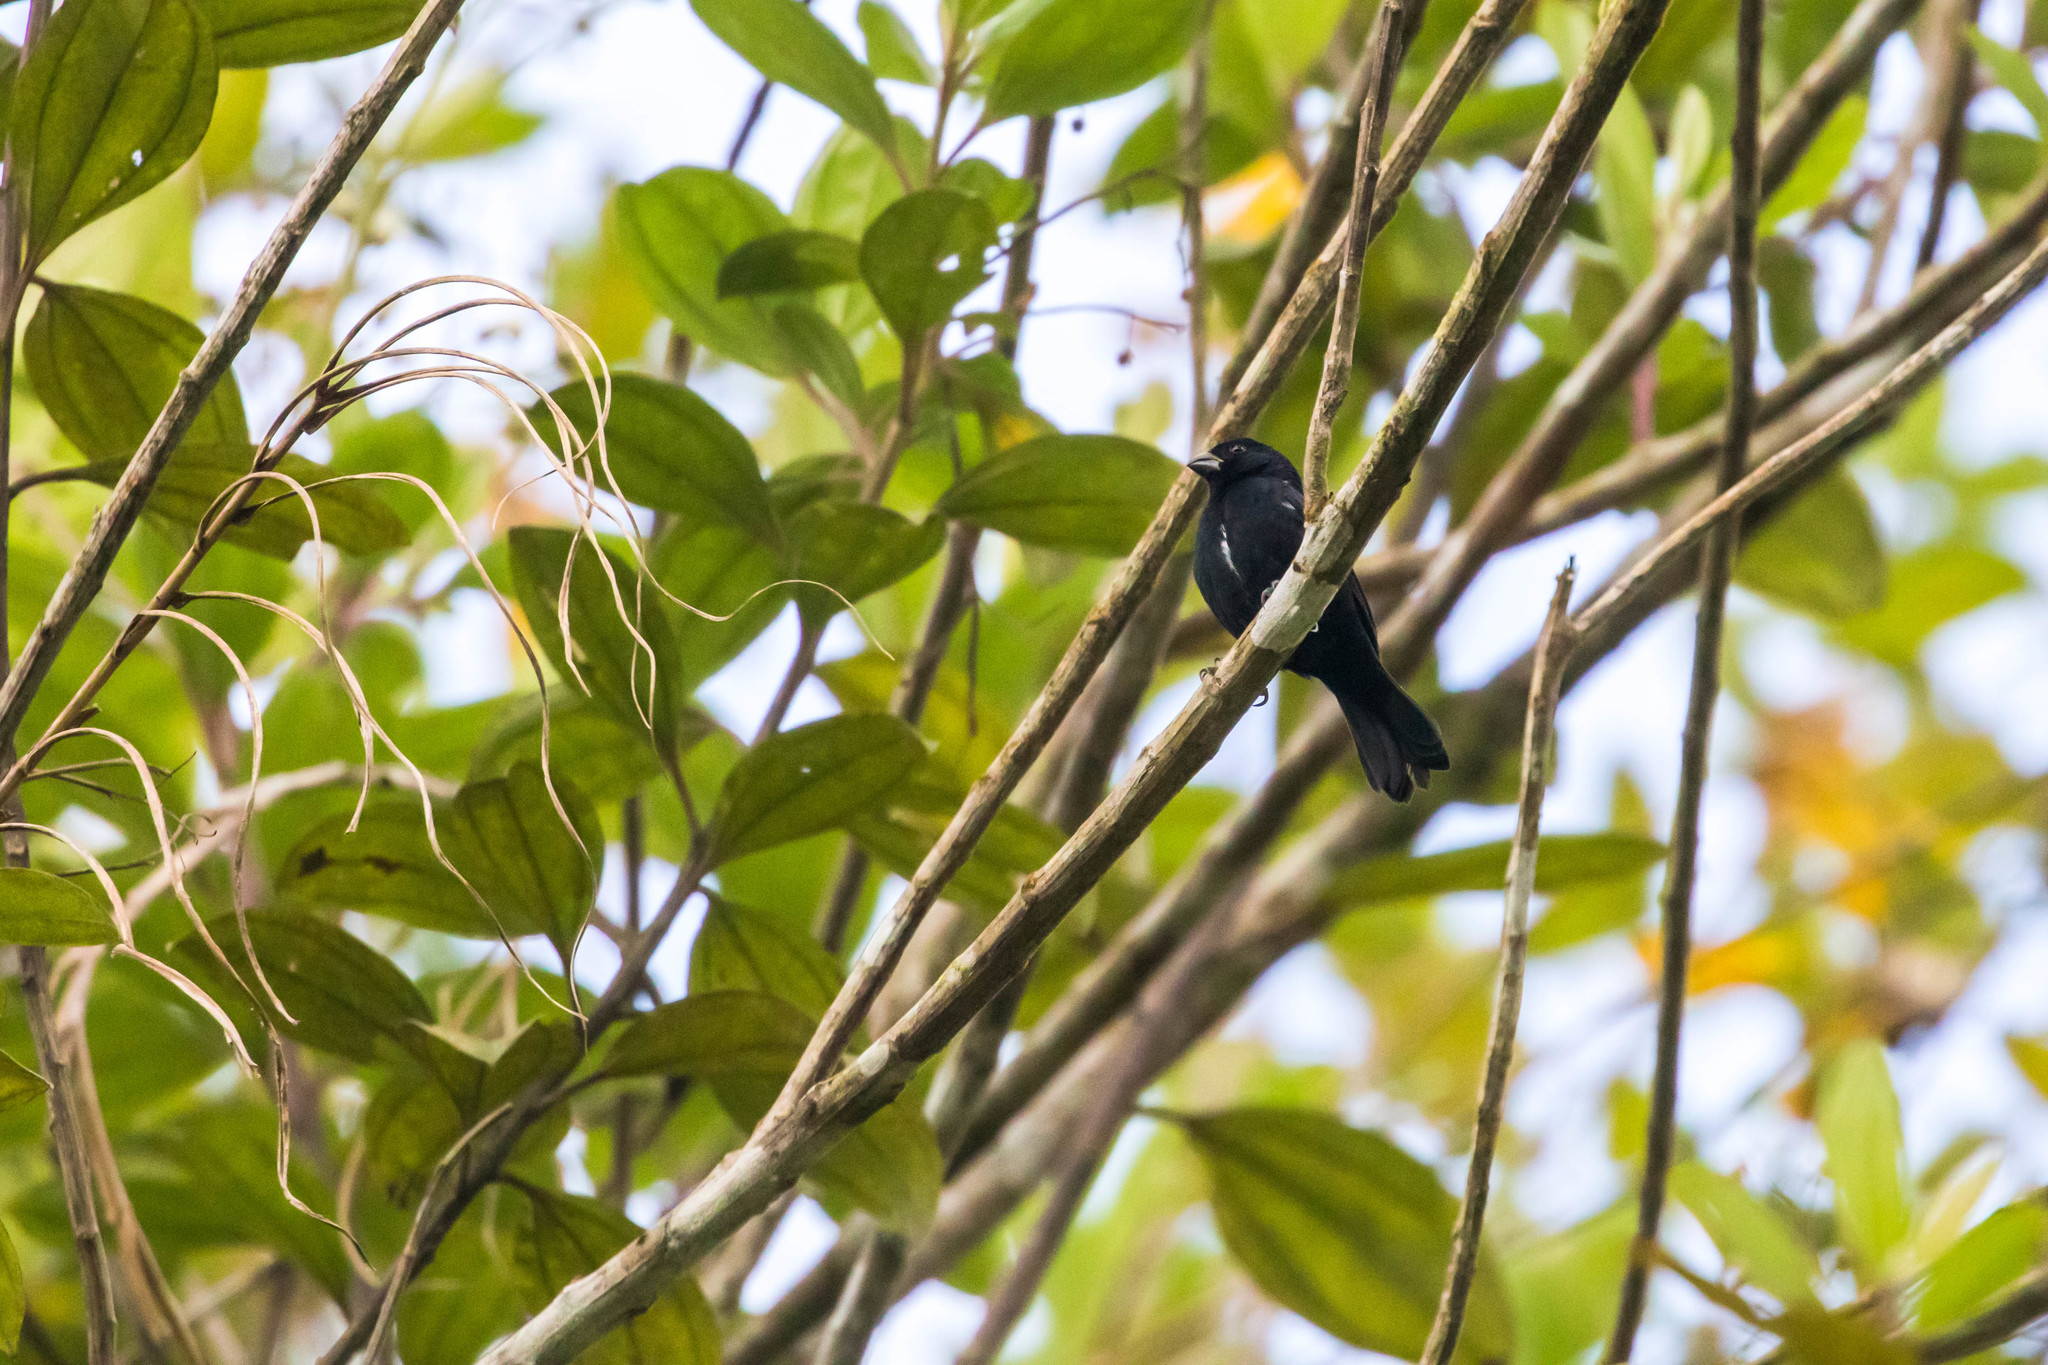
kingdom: Animalia
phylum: Chordata
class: Aves
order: Passeriformes
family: Thraupidae
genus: Sporophila
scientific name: Sporophila corvina
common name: Variable seedeater
